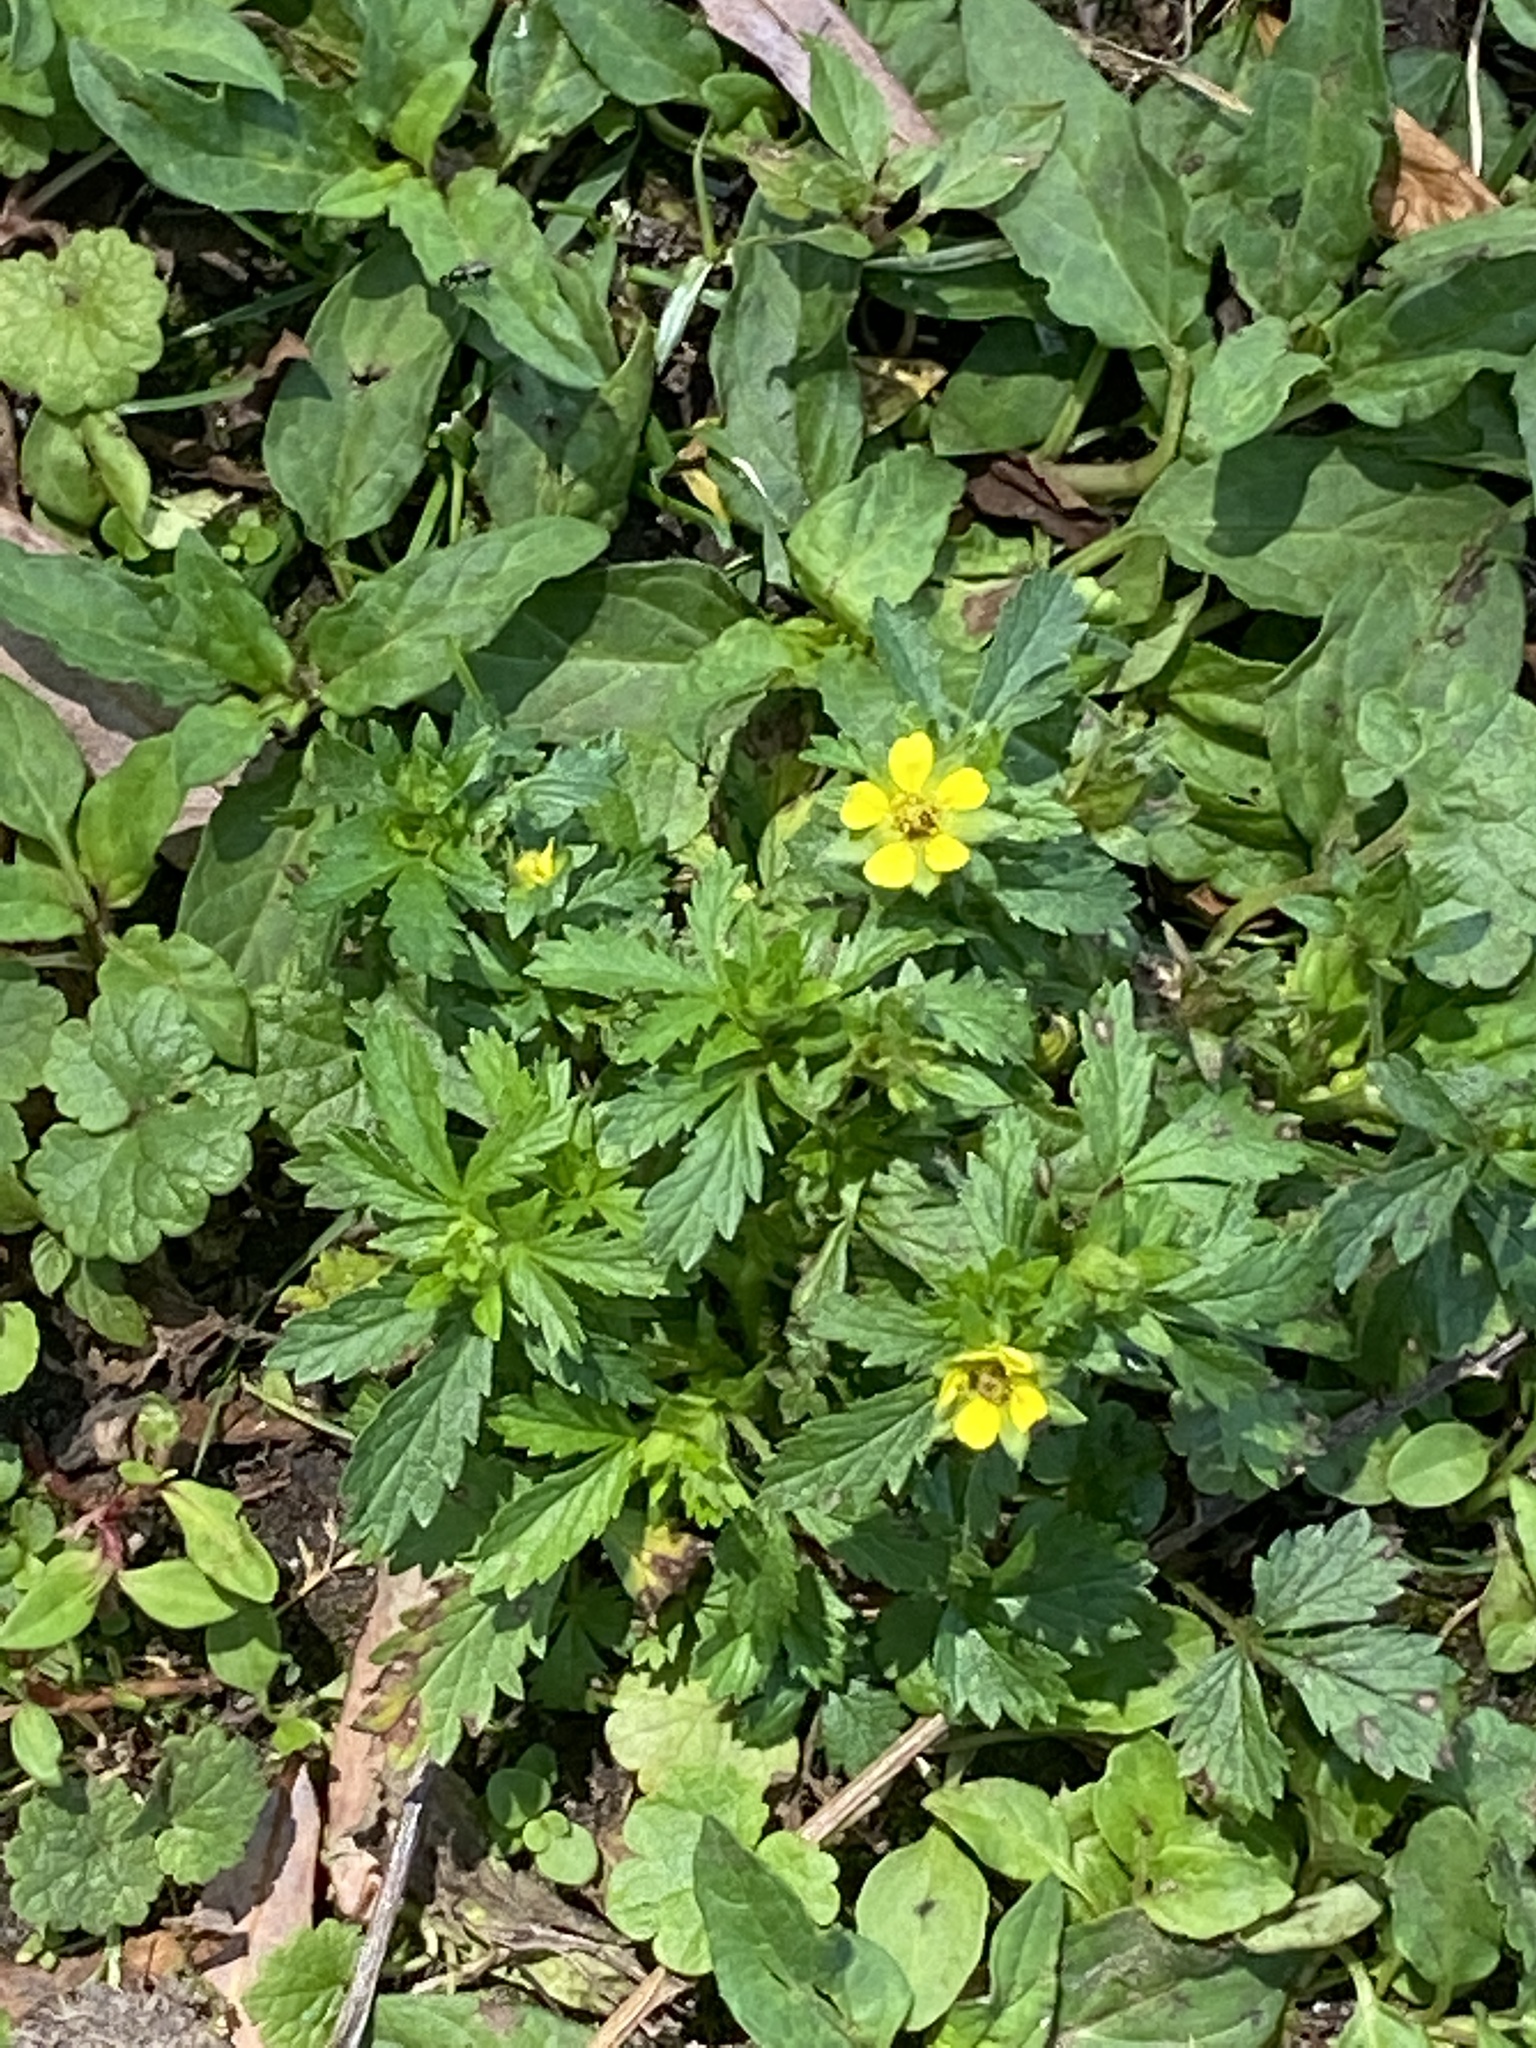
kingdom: Plantae
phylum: Tracheophyta
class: Magnoliopsida
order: Rosales
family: Rosaceae
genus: Potentilla
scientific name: Potentilla norvegica
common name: Ternate-leaved cinquefoil
